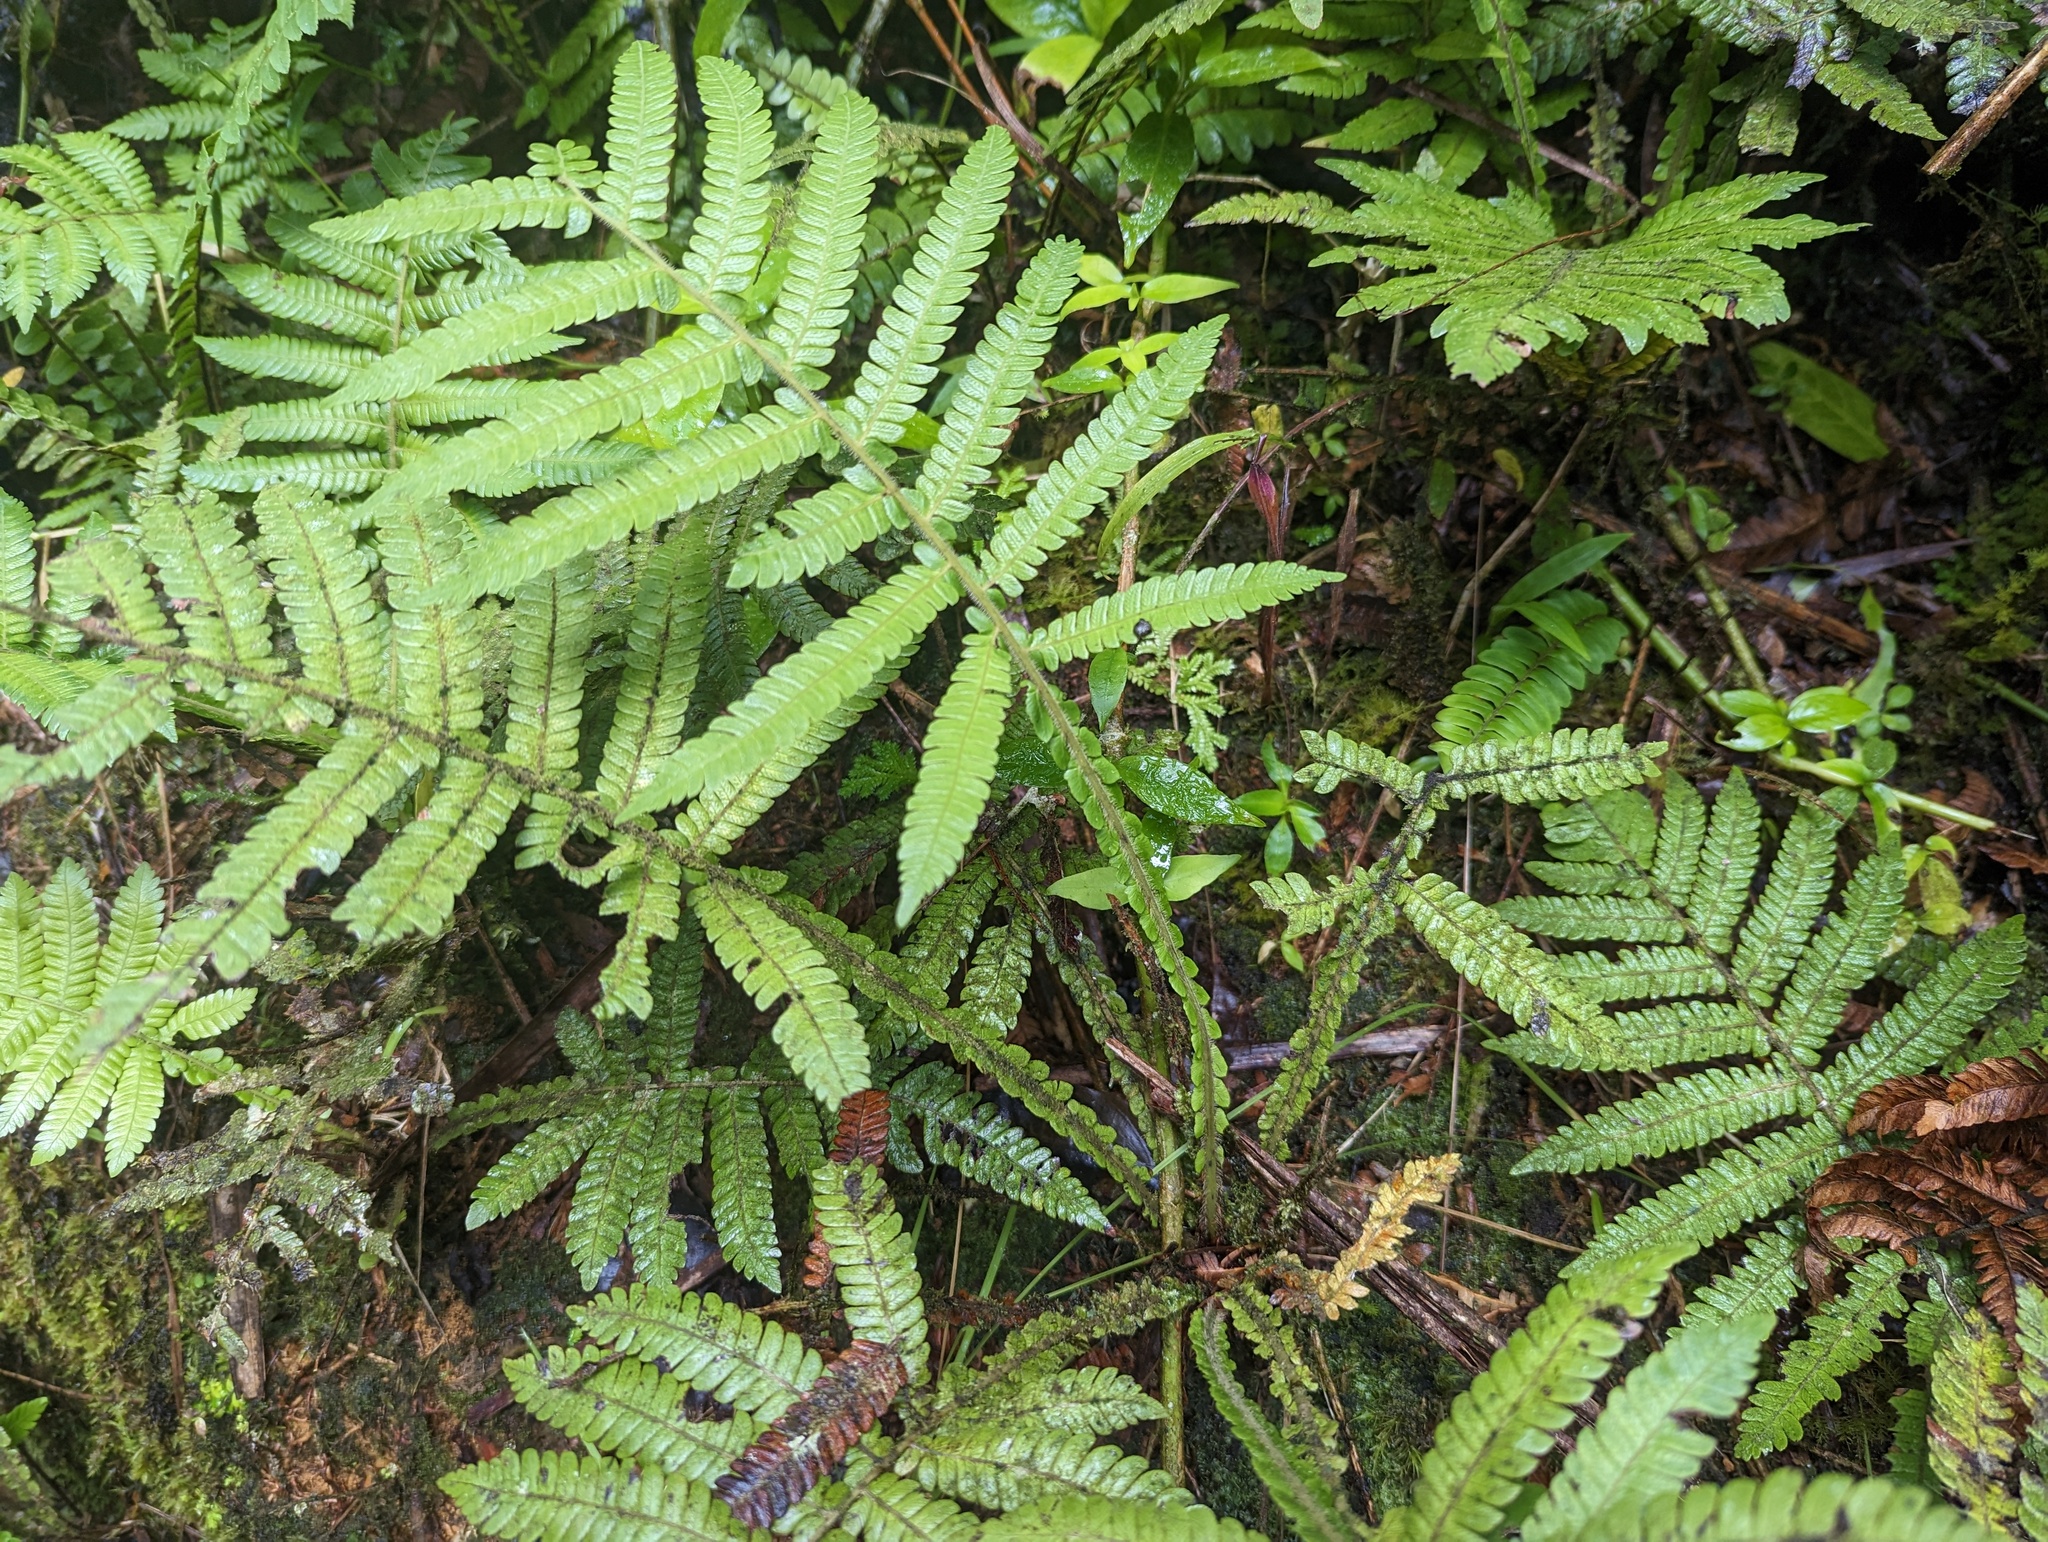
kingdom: Plantae
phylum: Tracheophyta
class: Polypodiopsida
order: Polypodiales
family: Thelypteridaceae
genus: Steiropteris
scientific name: Steiropteris deltoidea
